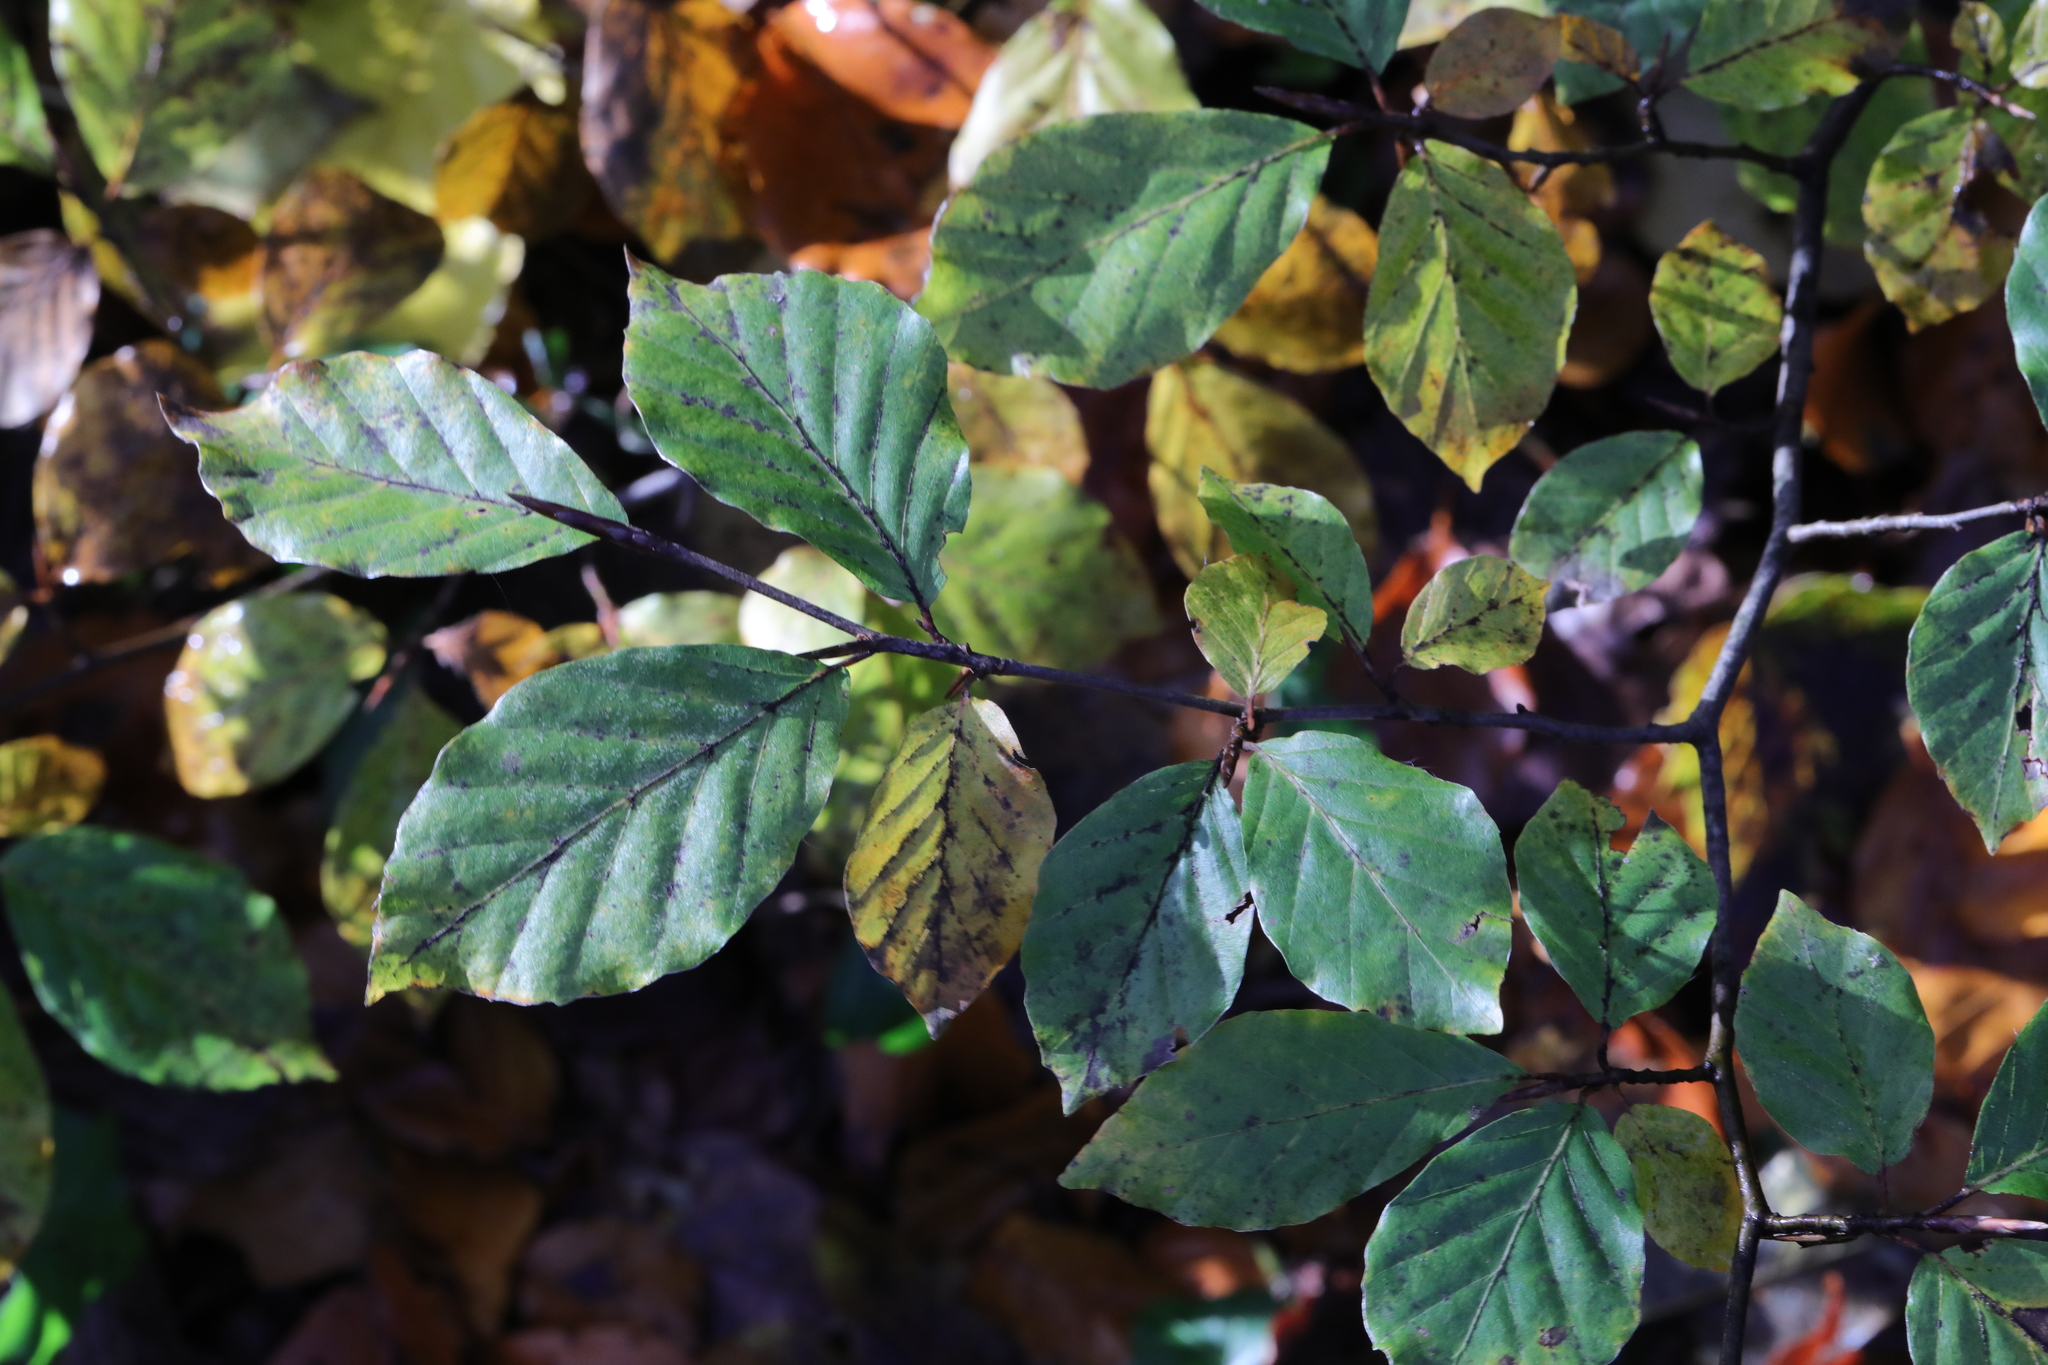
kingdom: Plantae
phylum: Tracheophyta
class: Magnoliopsida
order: Fagales
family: Fagaceae
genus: Fagus
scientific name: Fagus sylvatica
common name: Beech
